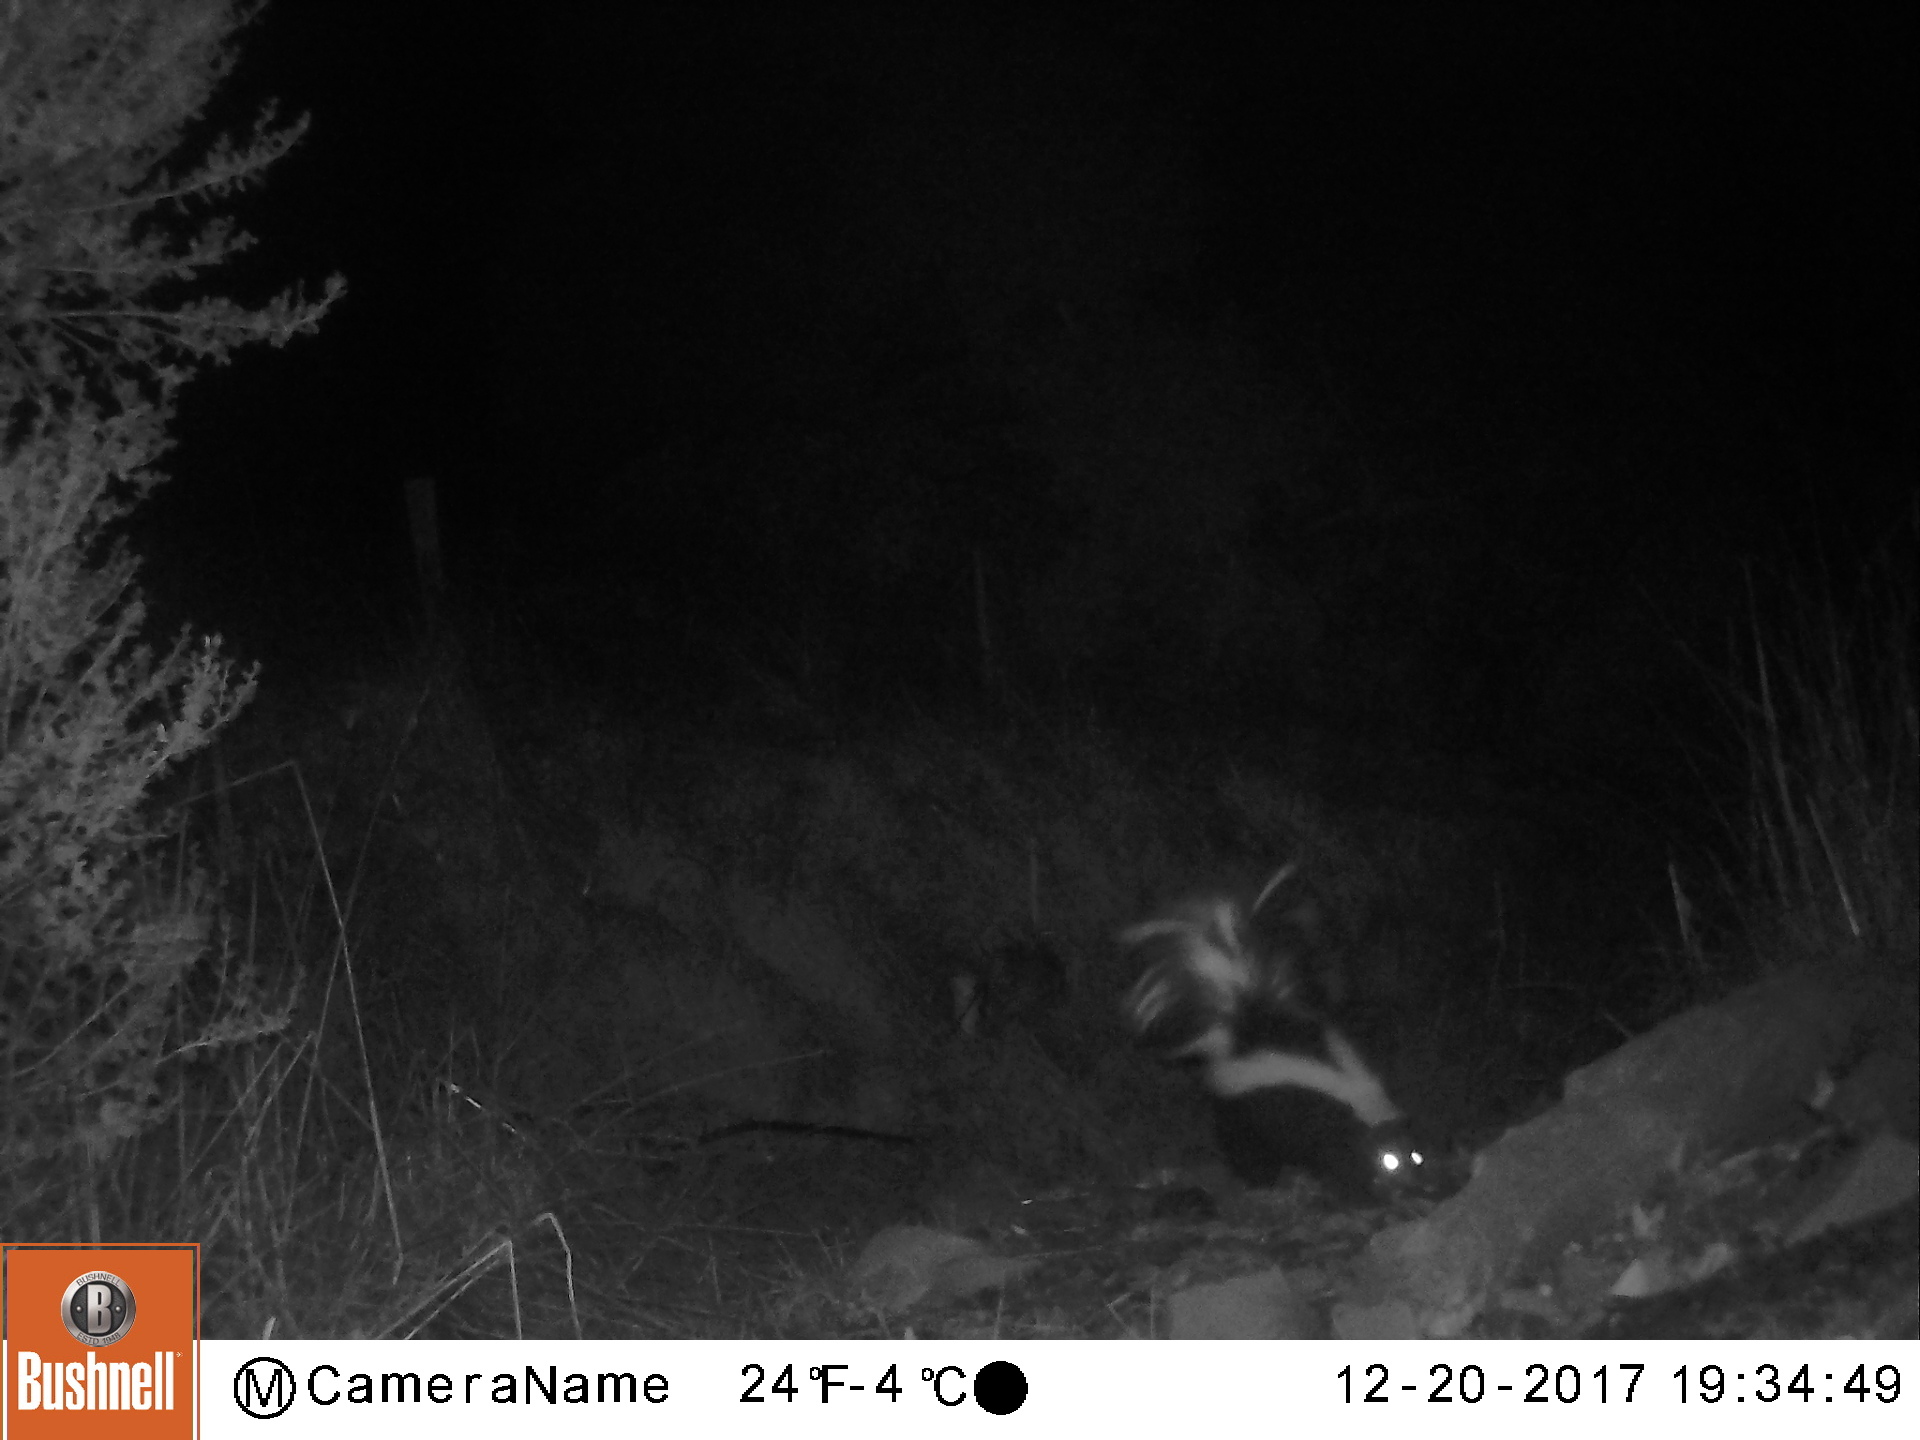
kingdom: Animalia
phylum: Chordata
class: Mammalia
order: Carnivora
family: Mephitidae
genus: Mephitis
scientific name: Mephitis mephitis
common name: Striped skunk
